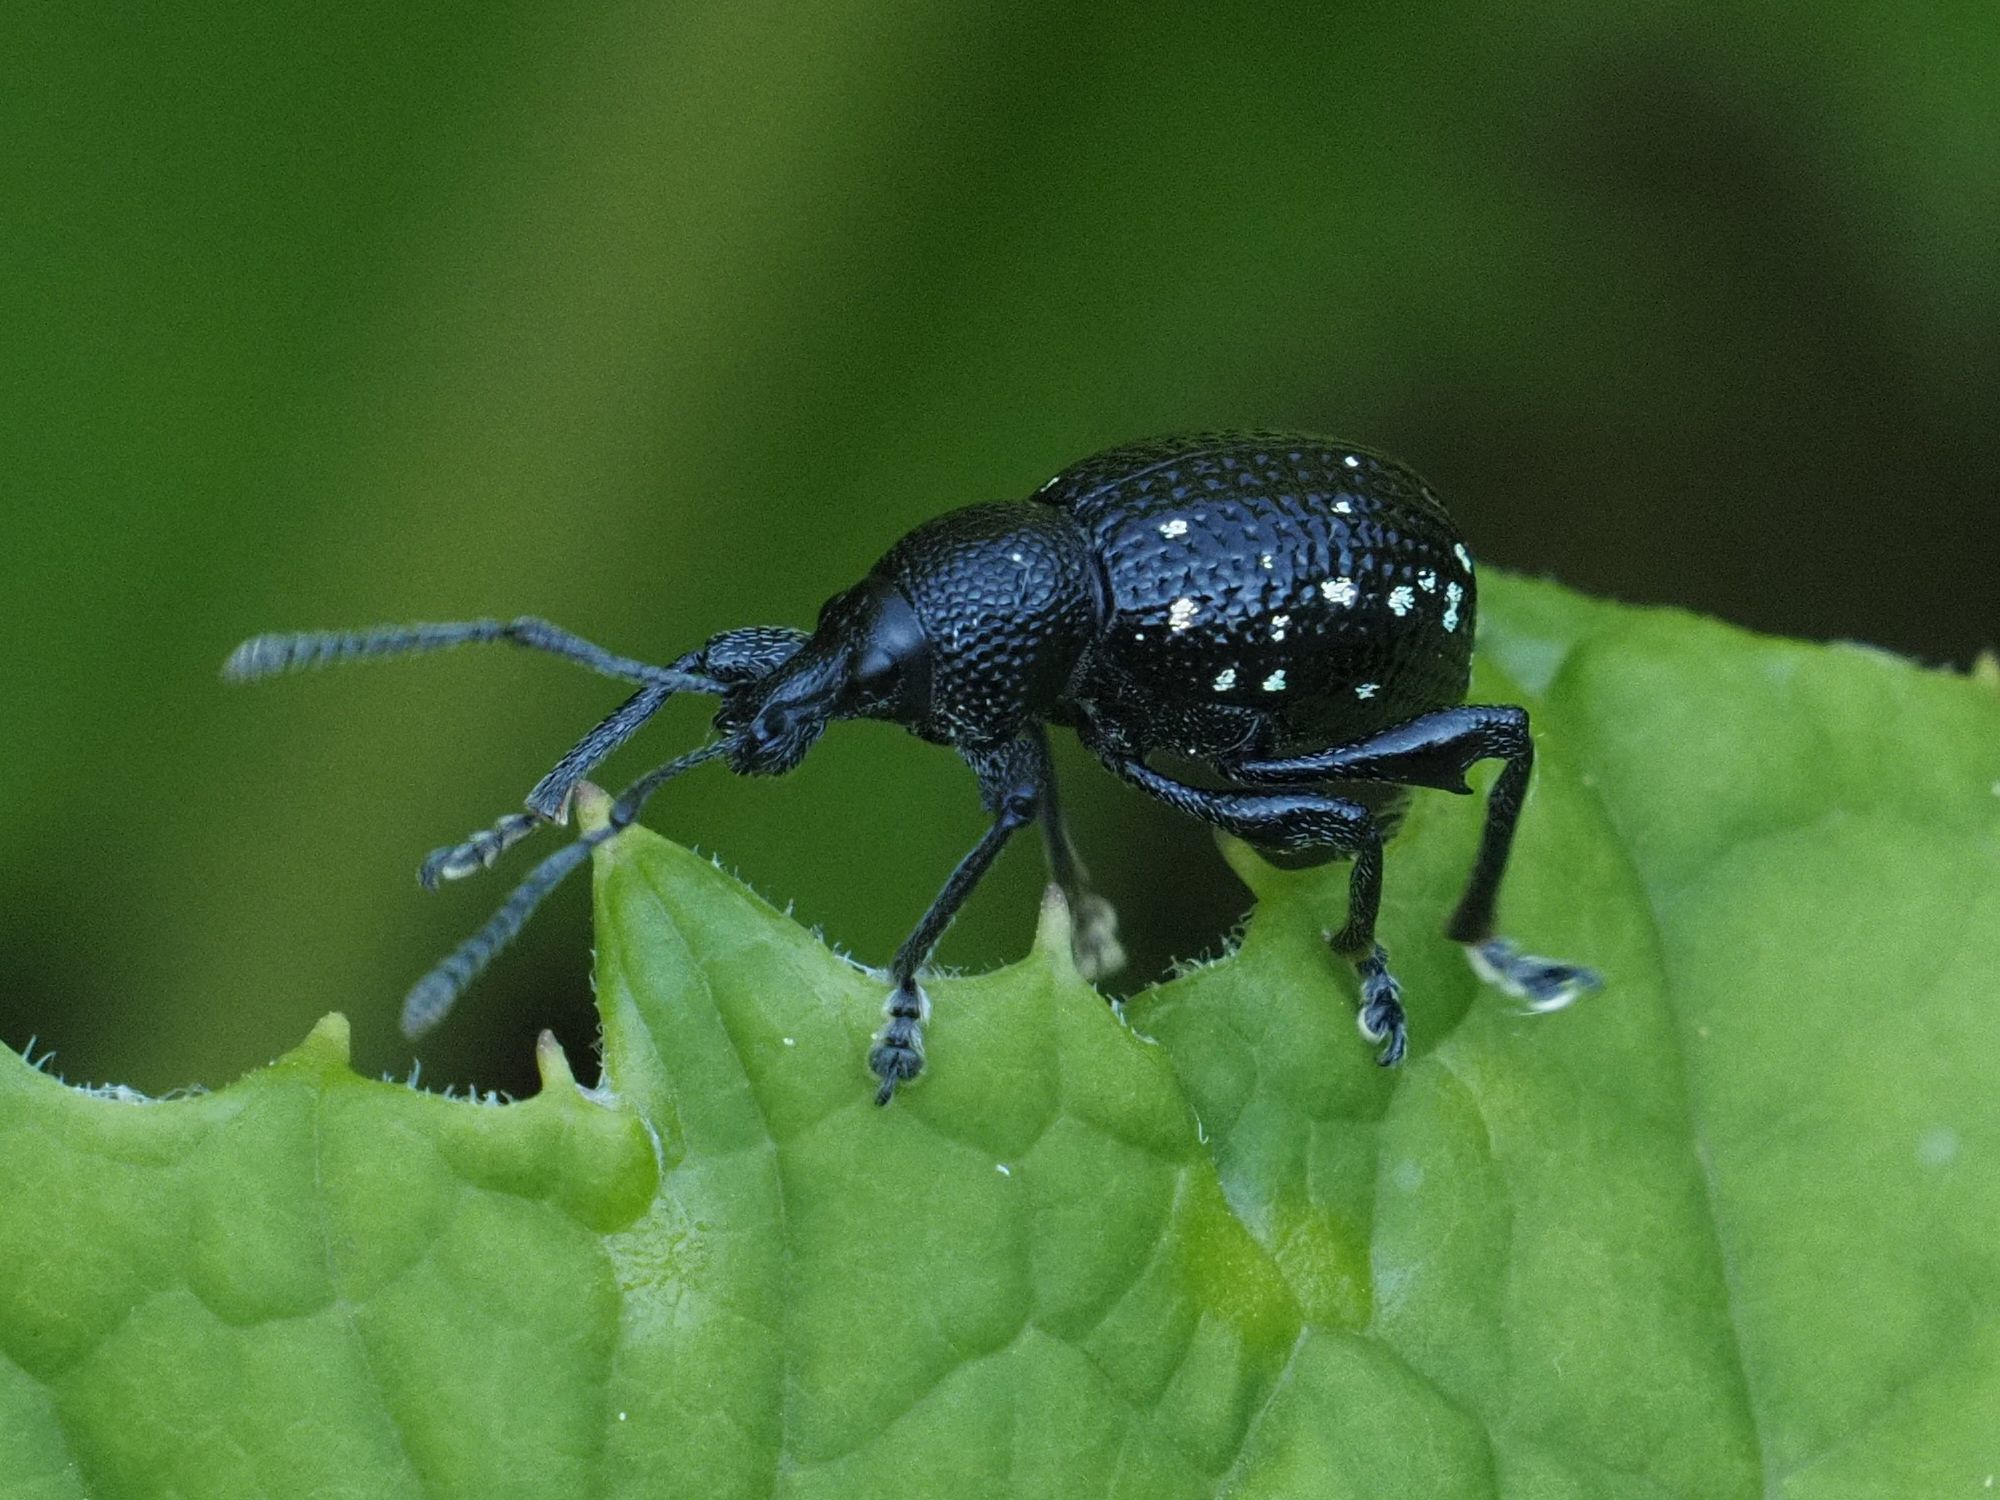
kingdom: Animalia
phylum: Arthropoda
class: Insecta
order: Coleoptera
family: Curculionidae
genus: Otiorhynchus
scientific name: Otiorhynchus gemmatus
